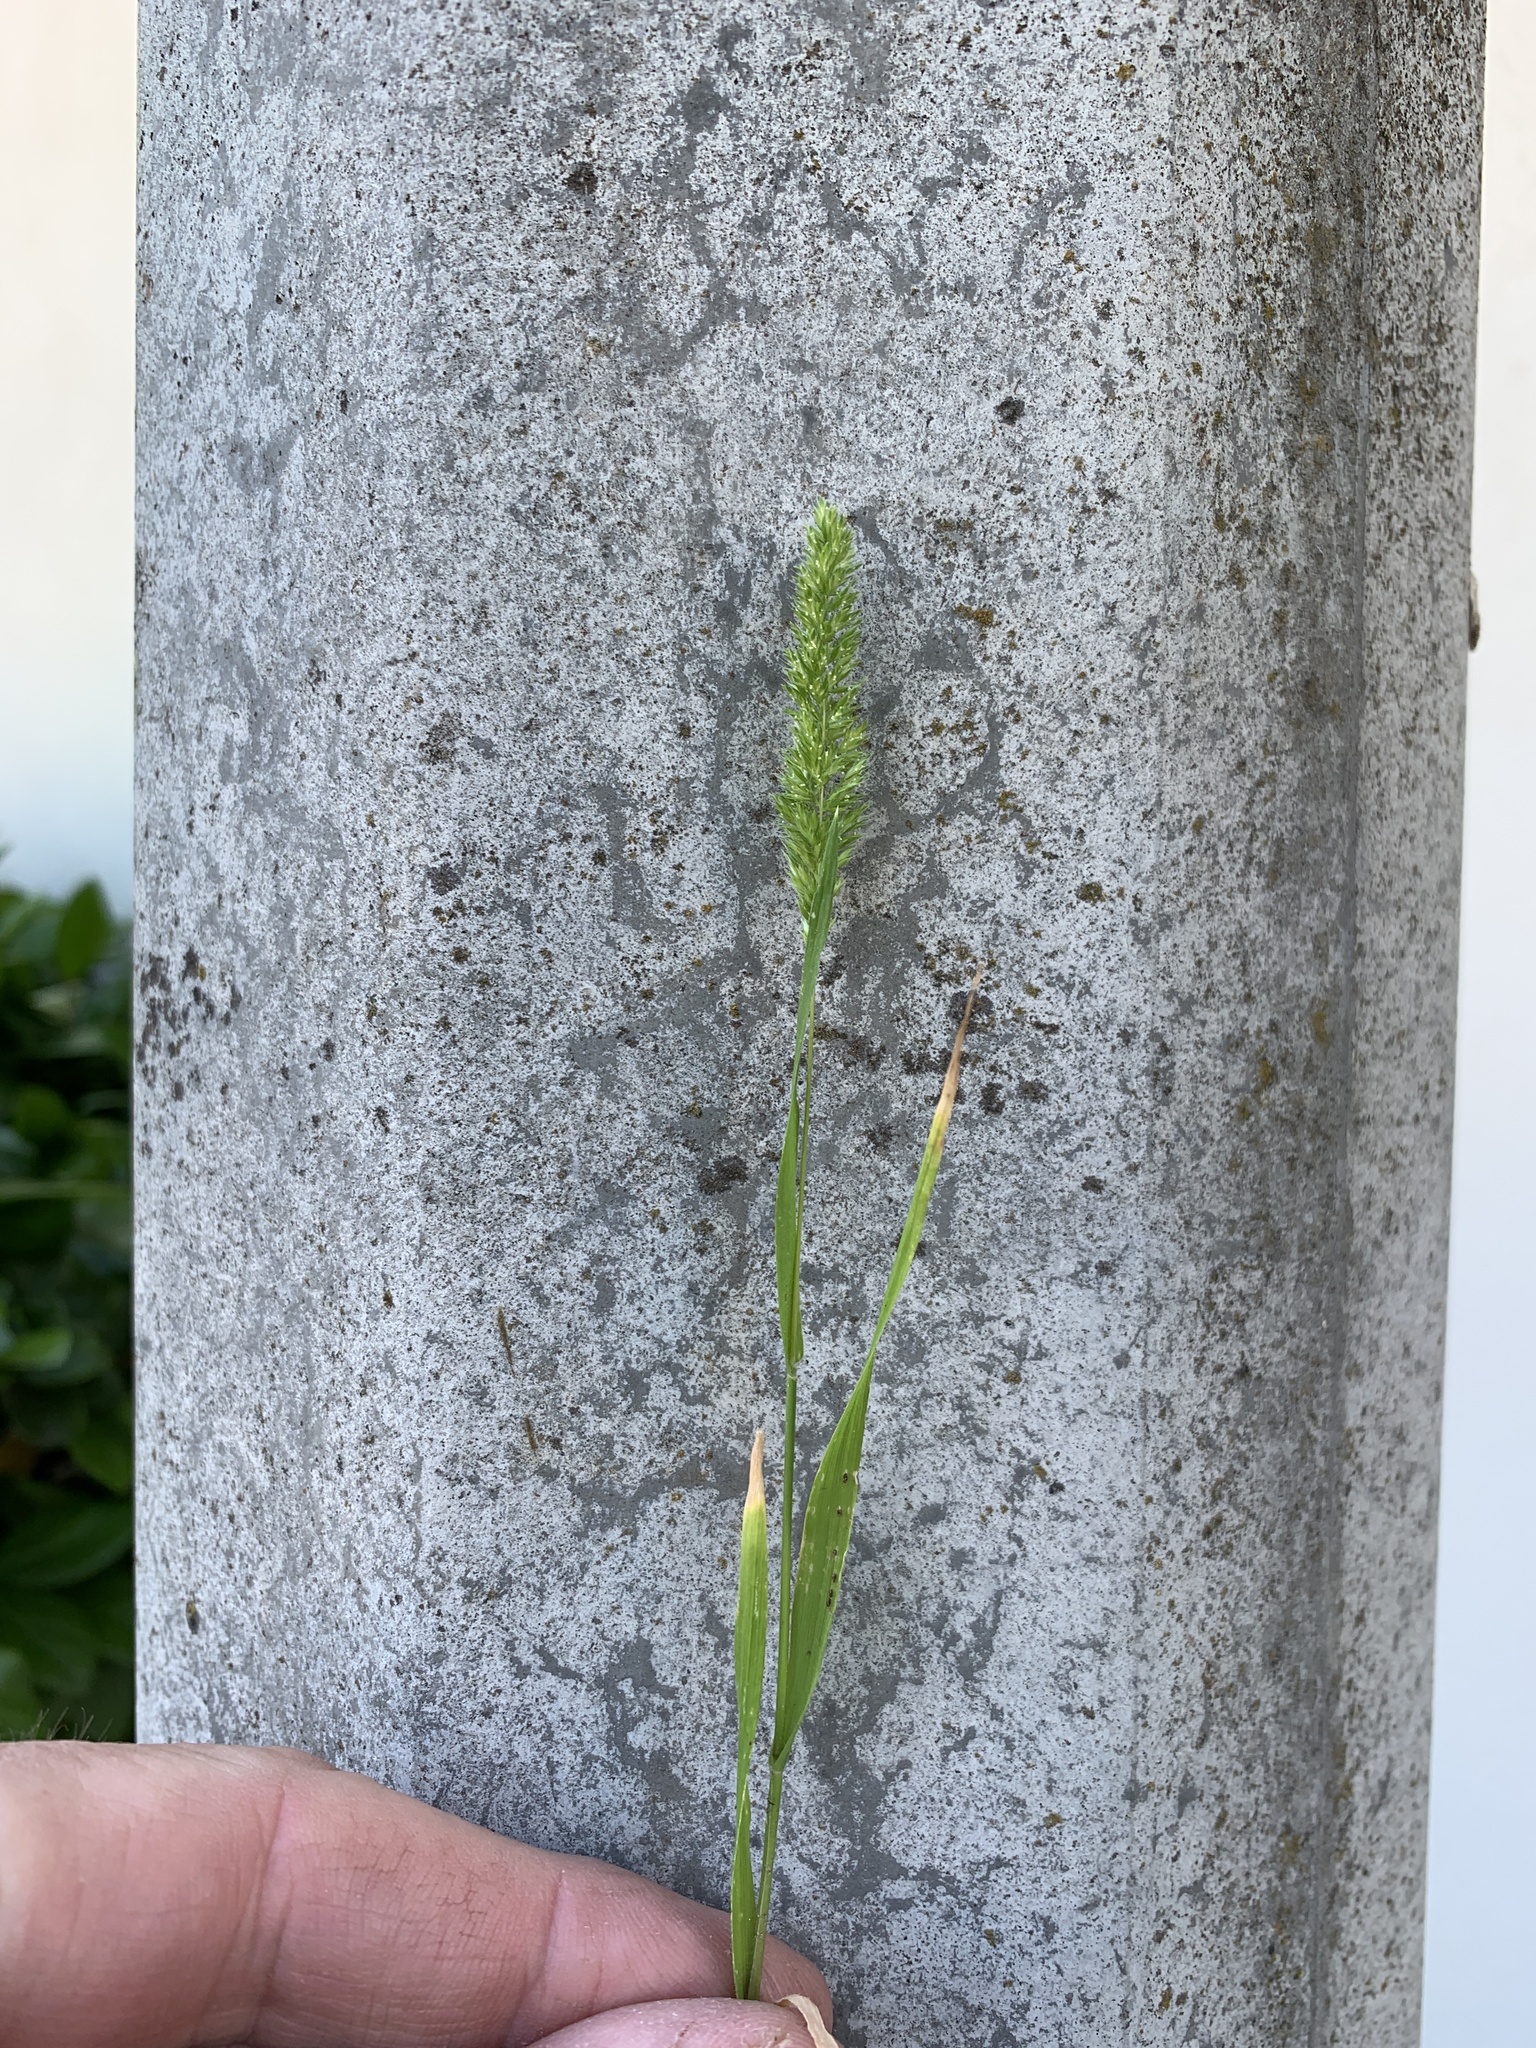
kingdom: Plantae
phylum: Tracheophyta
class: Liliopsida
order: Poales
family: Poaceae
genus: Rostraria
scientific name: Rostraria cristata
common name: Mediterranean hair-grass
